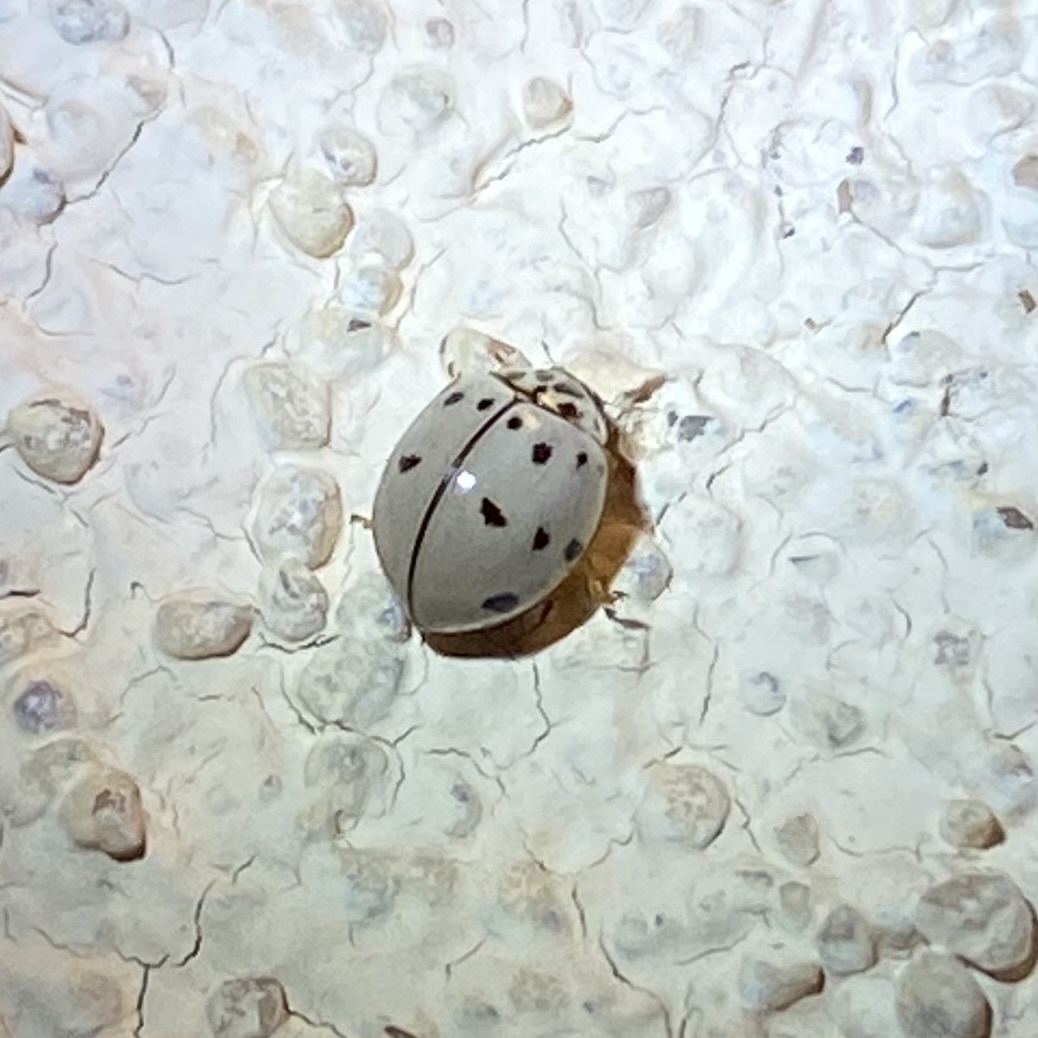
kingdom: Animalia
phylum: Arthropoda
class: Insecta
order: Coleoptera
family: Coccinellidae
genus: Olla
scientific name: Olla v-nigrum
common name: Ashy gray lady beetle
